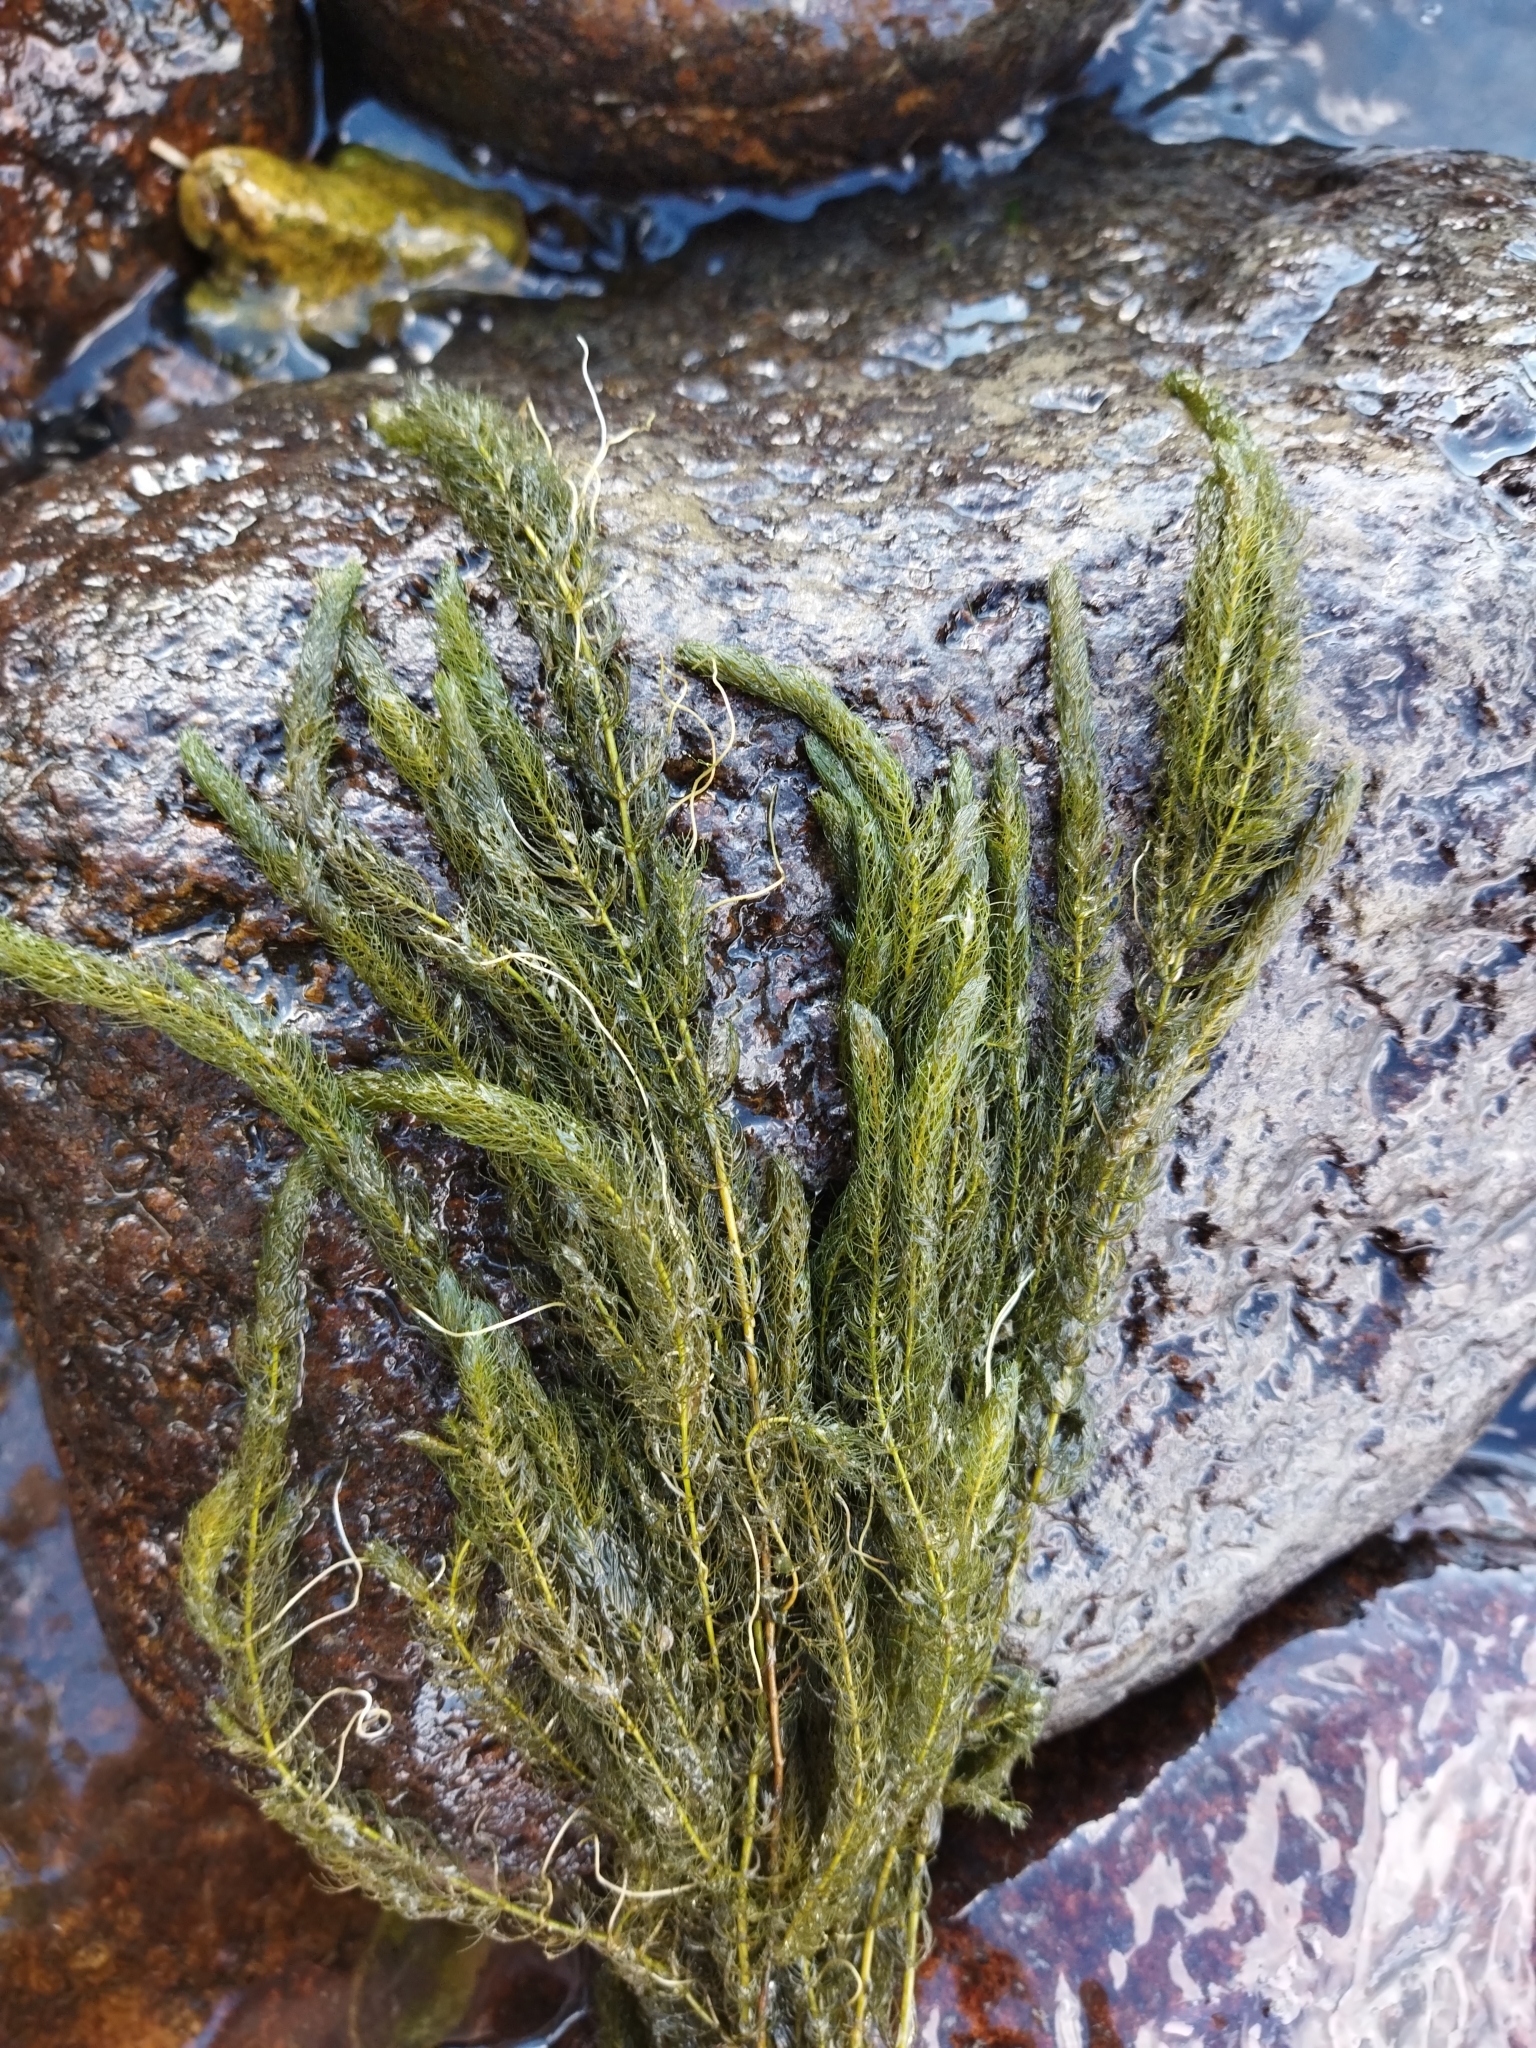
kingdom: Plantae
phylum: Tracheophyta
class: Magnoliopsida
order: Ceratophyllales
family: Ceratophyllaceae
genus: Ceratophyllum
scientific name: Ceratophyllum demersum
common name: Rigid hornwort
